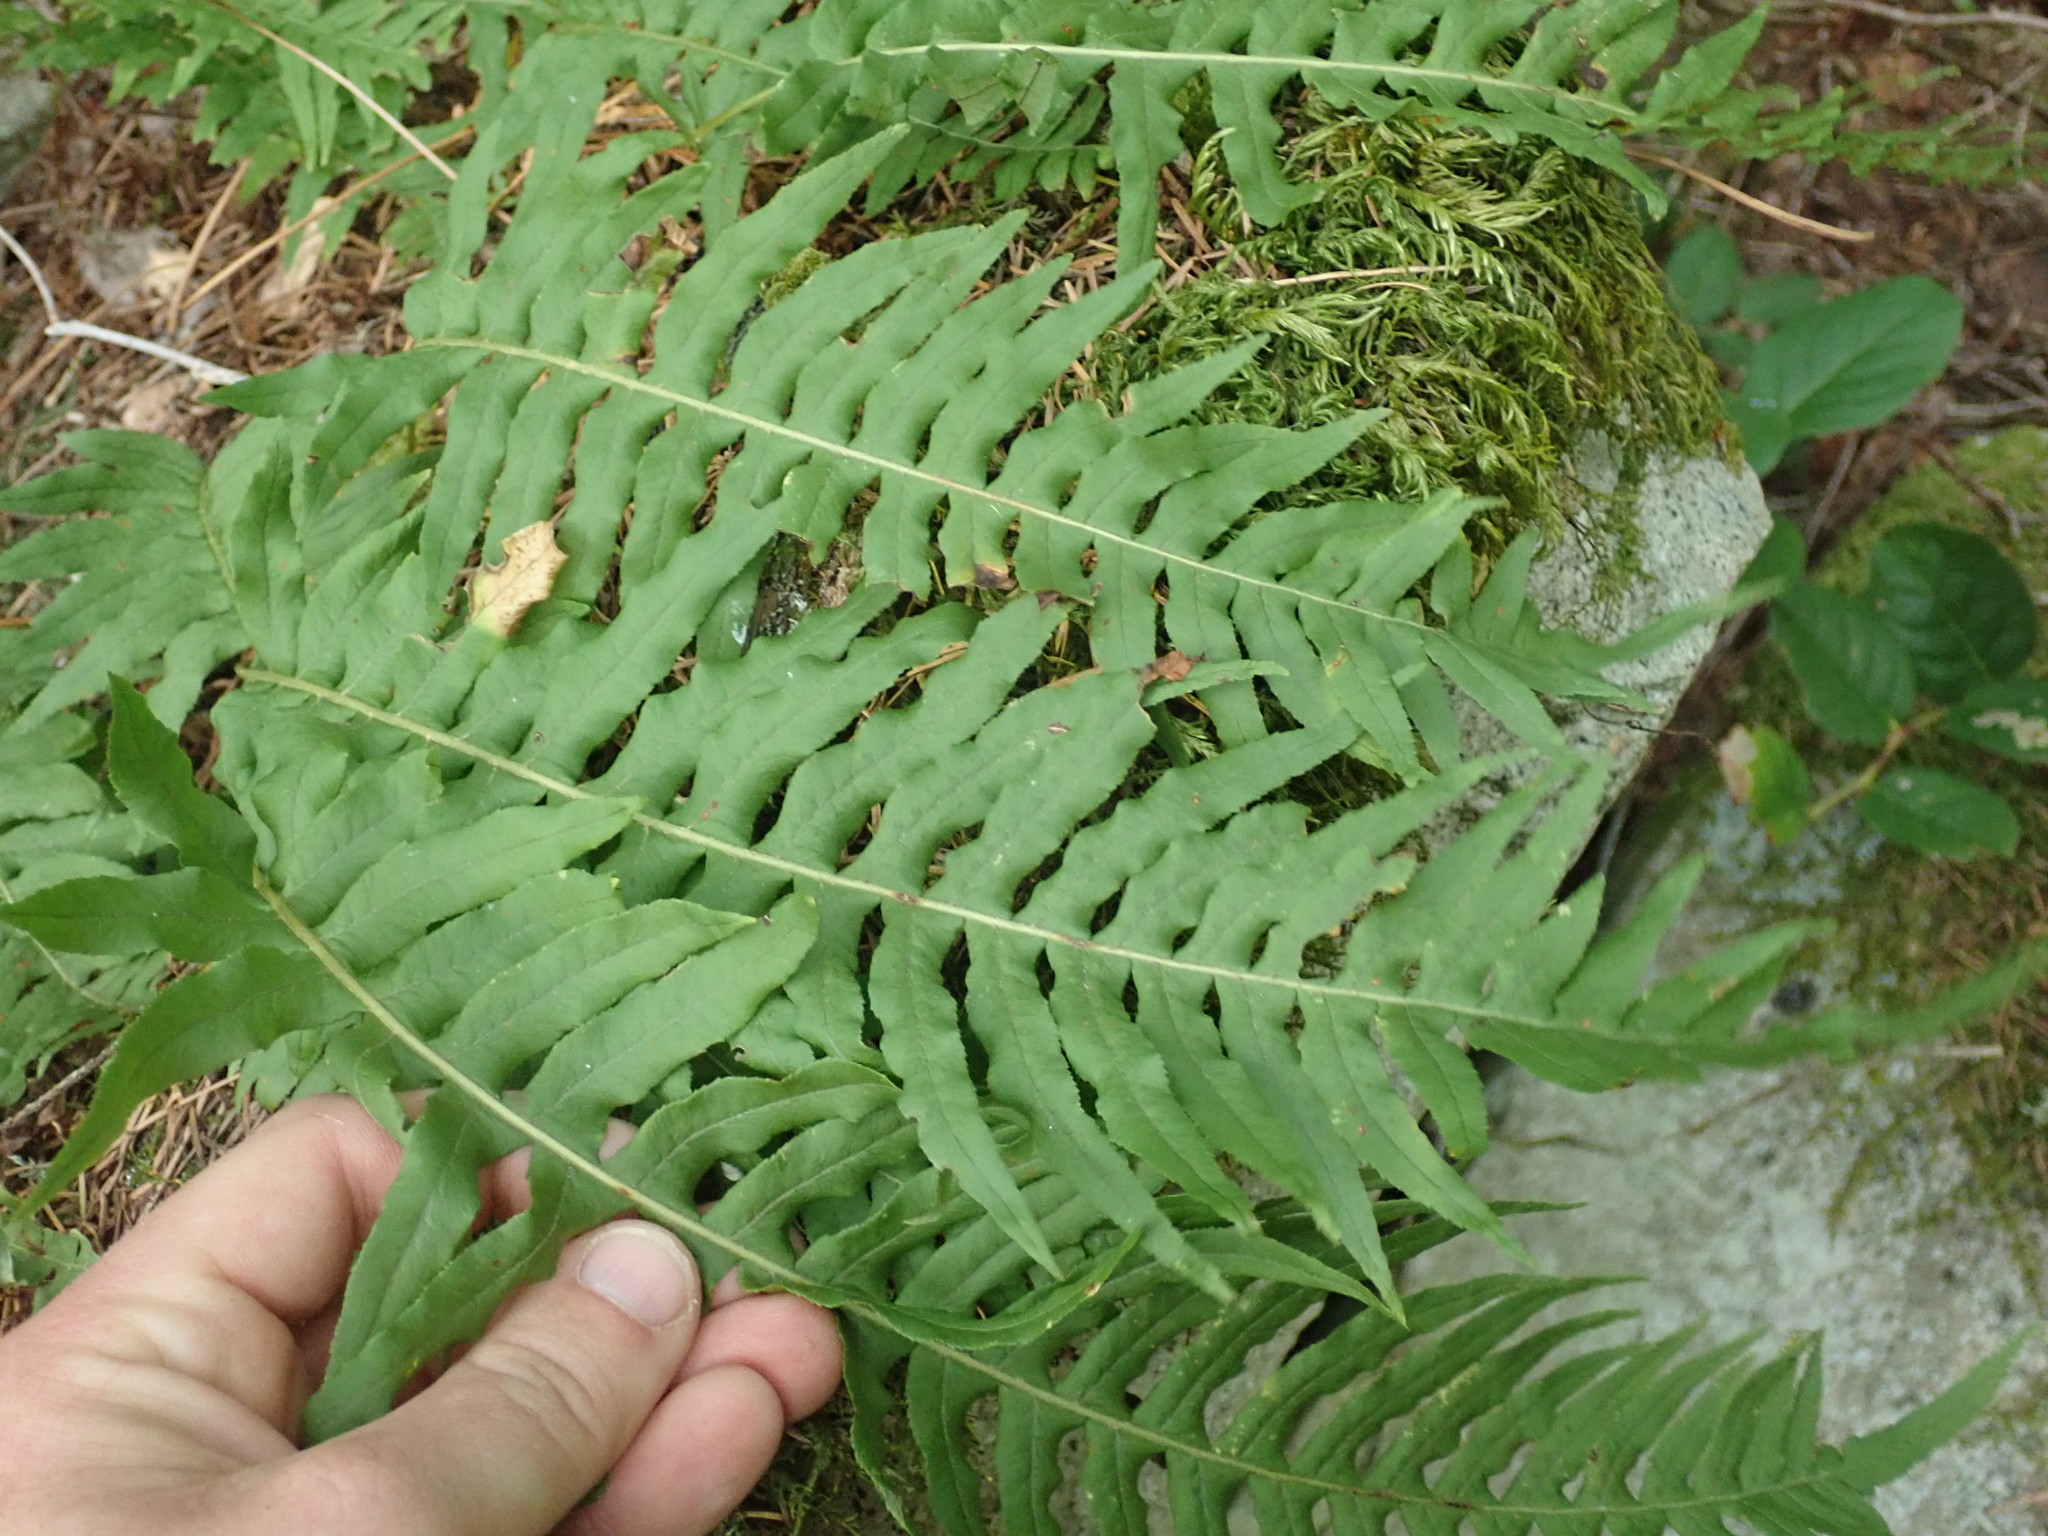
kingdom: Plantae
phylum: Tracheophyta
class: Polypodiopsida
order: Polypodiales
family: Polypodiaceae
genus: Polypodium
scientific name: Polypodium glycyrrhiza
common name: Licorice fern
